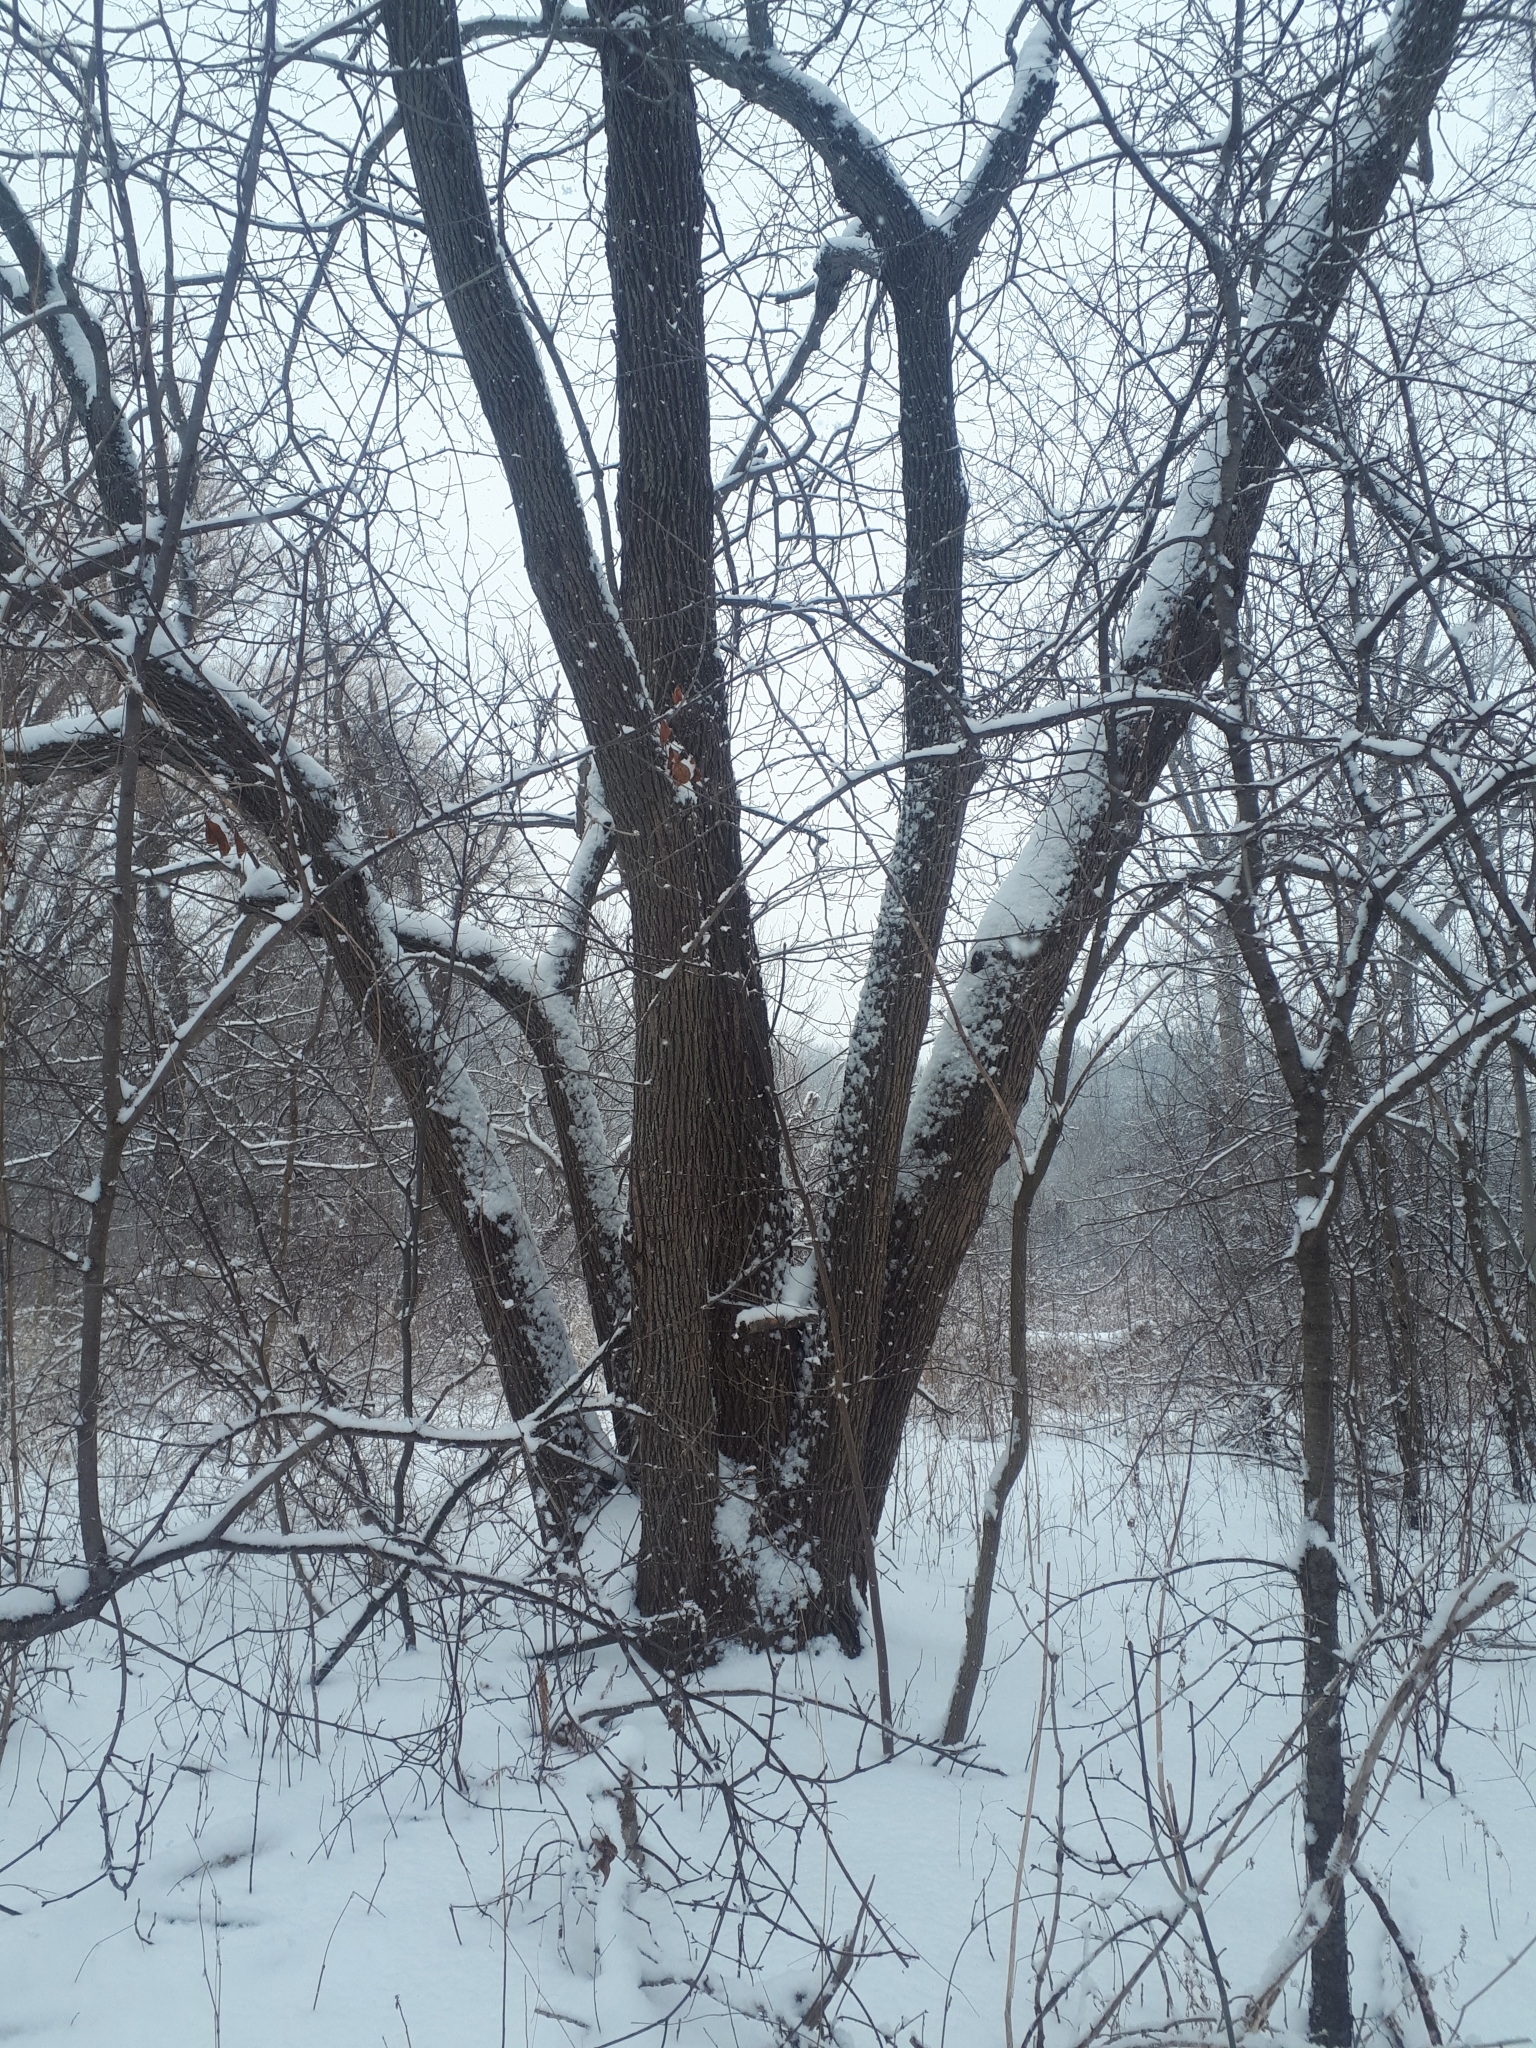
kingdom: Plantae
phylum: Tracheophyta
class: Magnoliopsida
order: Malvales
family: Malvaceae
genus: Tilia
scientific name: Tilia americana
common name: Basswood
